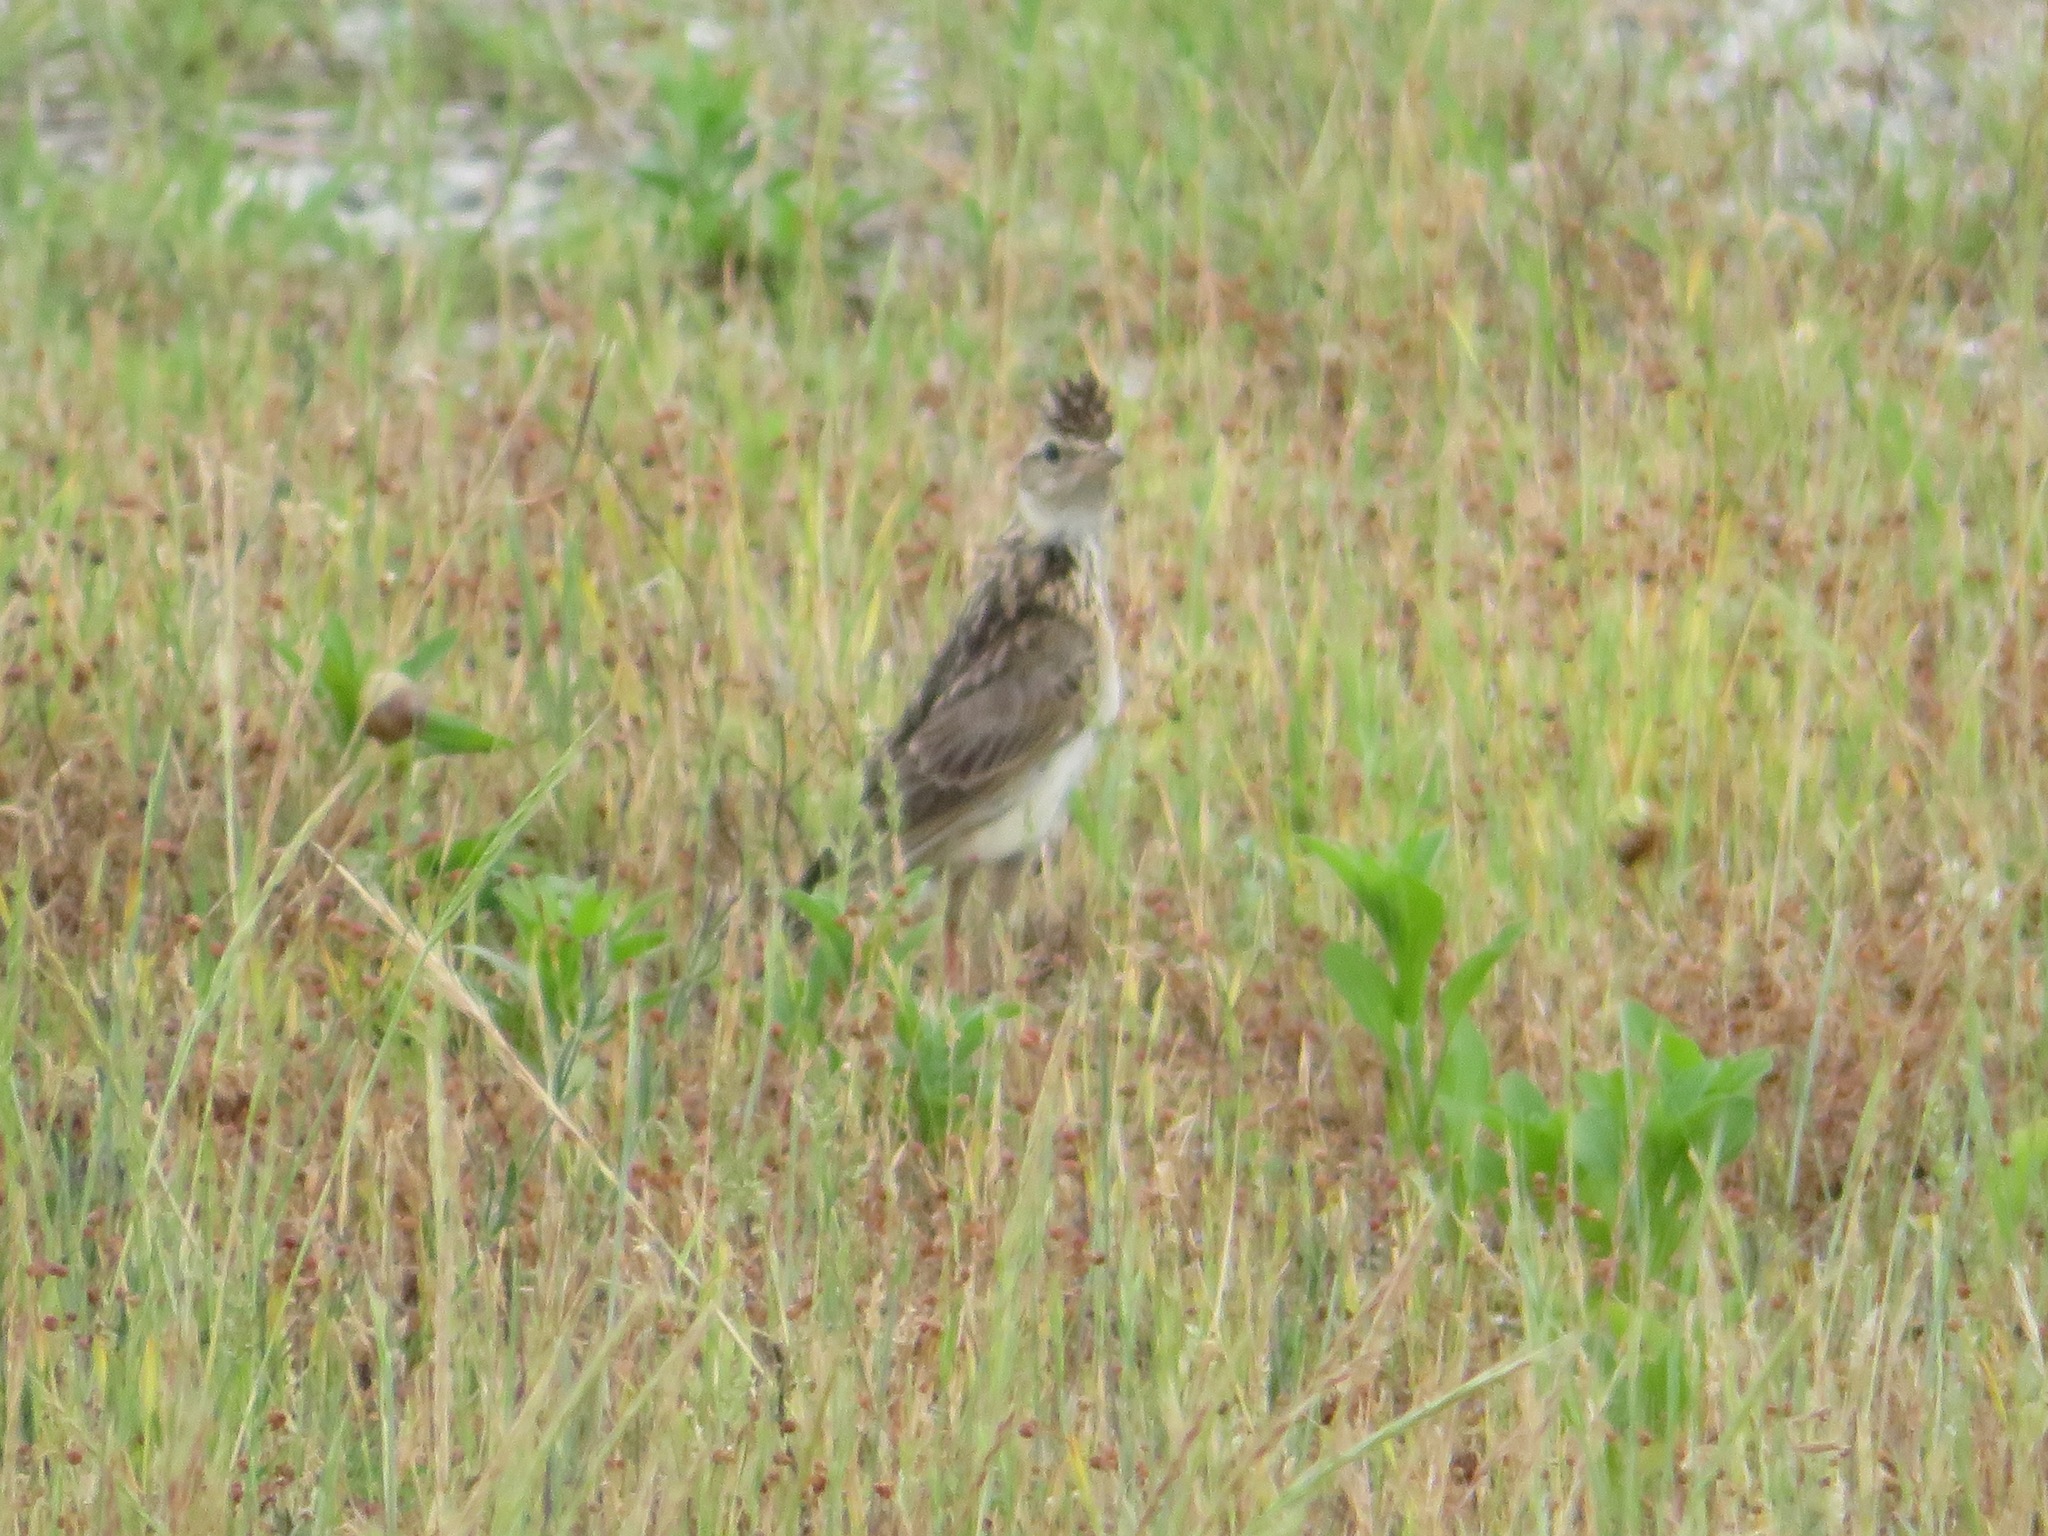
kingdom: Animalia
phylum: Chordata
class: Aves
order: Passeriformes
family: Alaudidae
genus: Alauda
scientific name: Alauda arvensis
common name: Eurasian skylark
